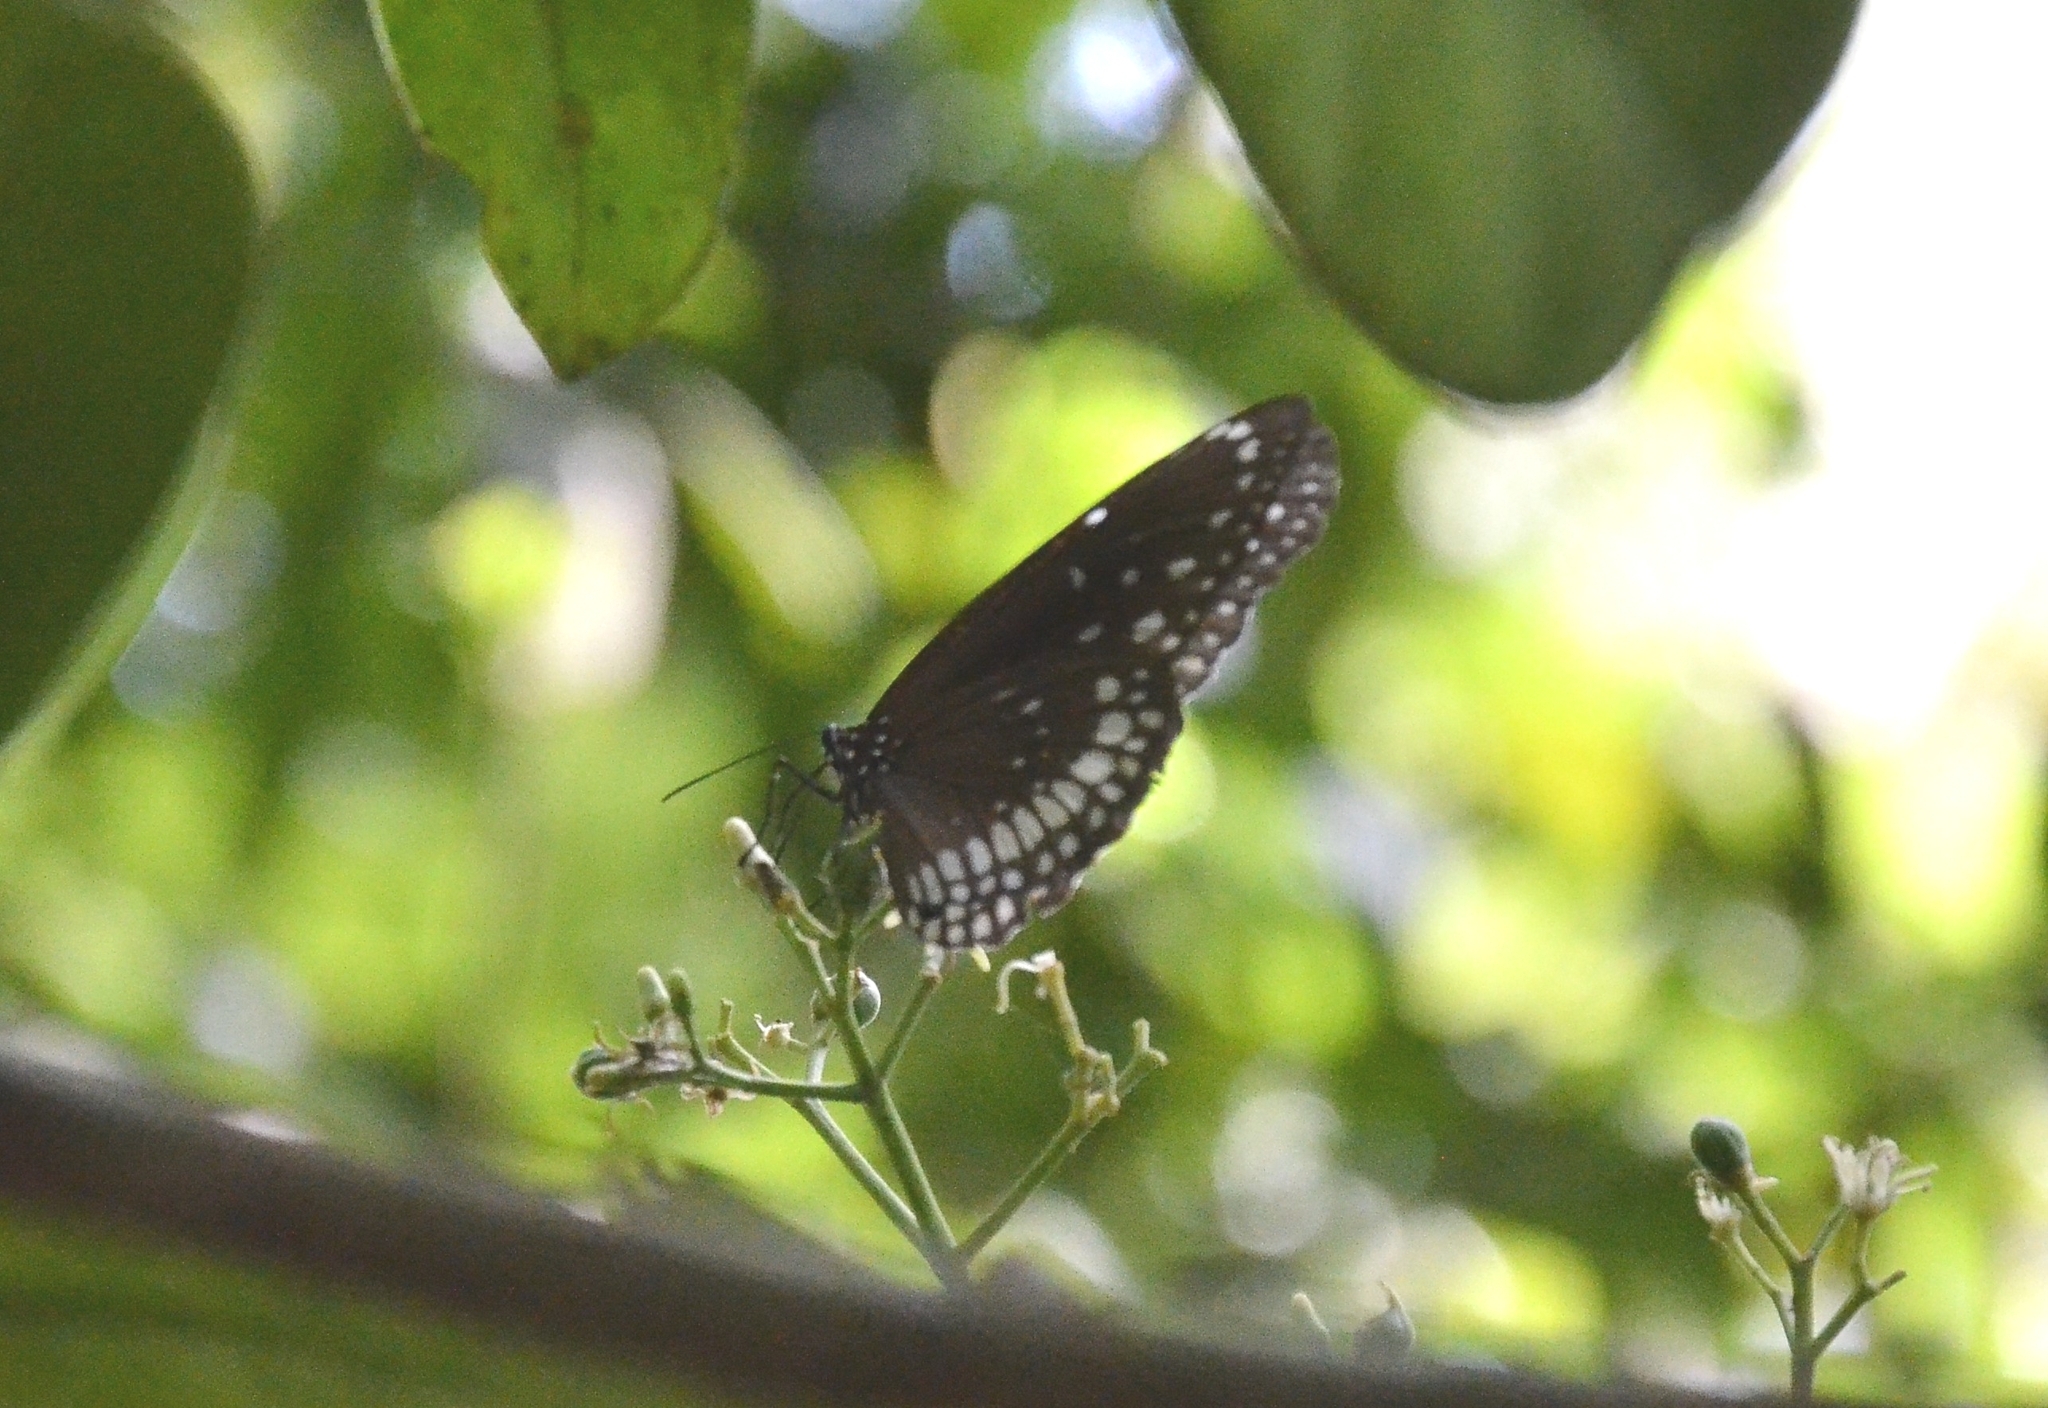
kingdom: Animalia
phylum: Arthropoda
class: Insecta
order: Lepidoptera
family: Nymphalidae
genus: Euploea
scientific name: Euploea core
